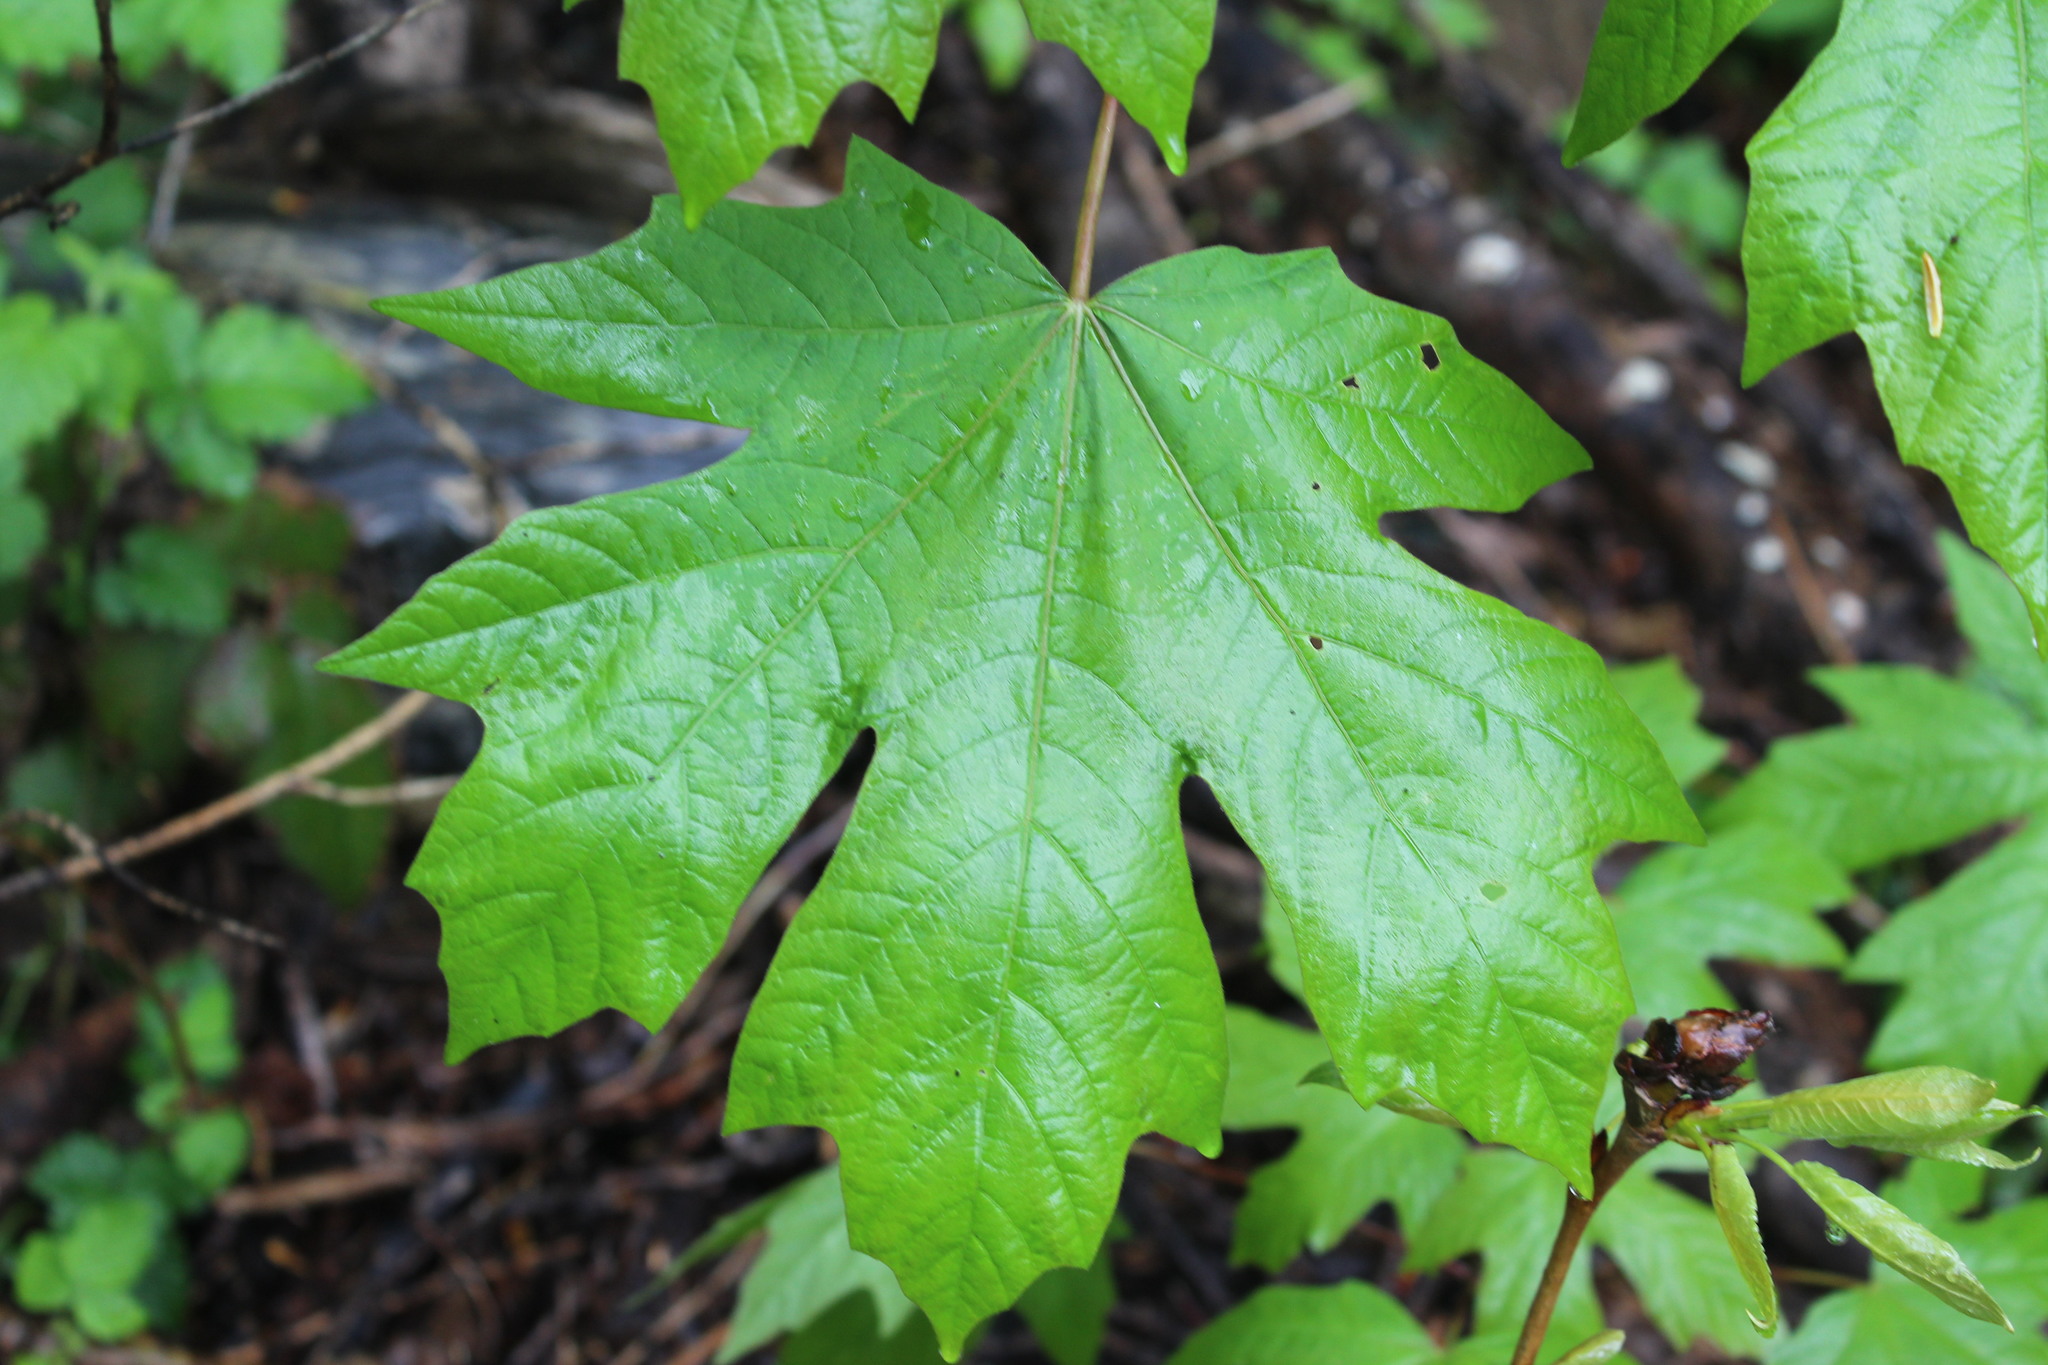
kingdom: Plantae
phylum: Tracheophyta
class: Magnoliopsida
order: Sapindales
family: Sapindaceae
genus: Acer
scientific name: Acer macrophyllum
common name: Oregon maple
